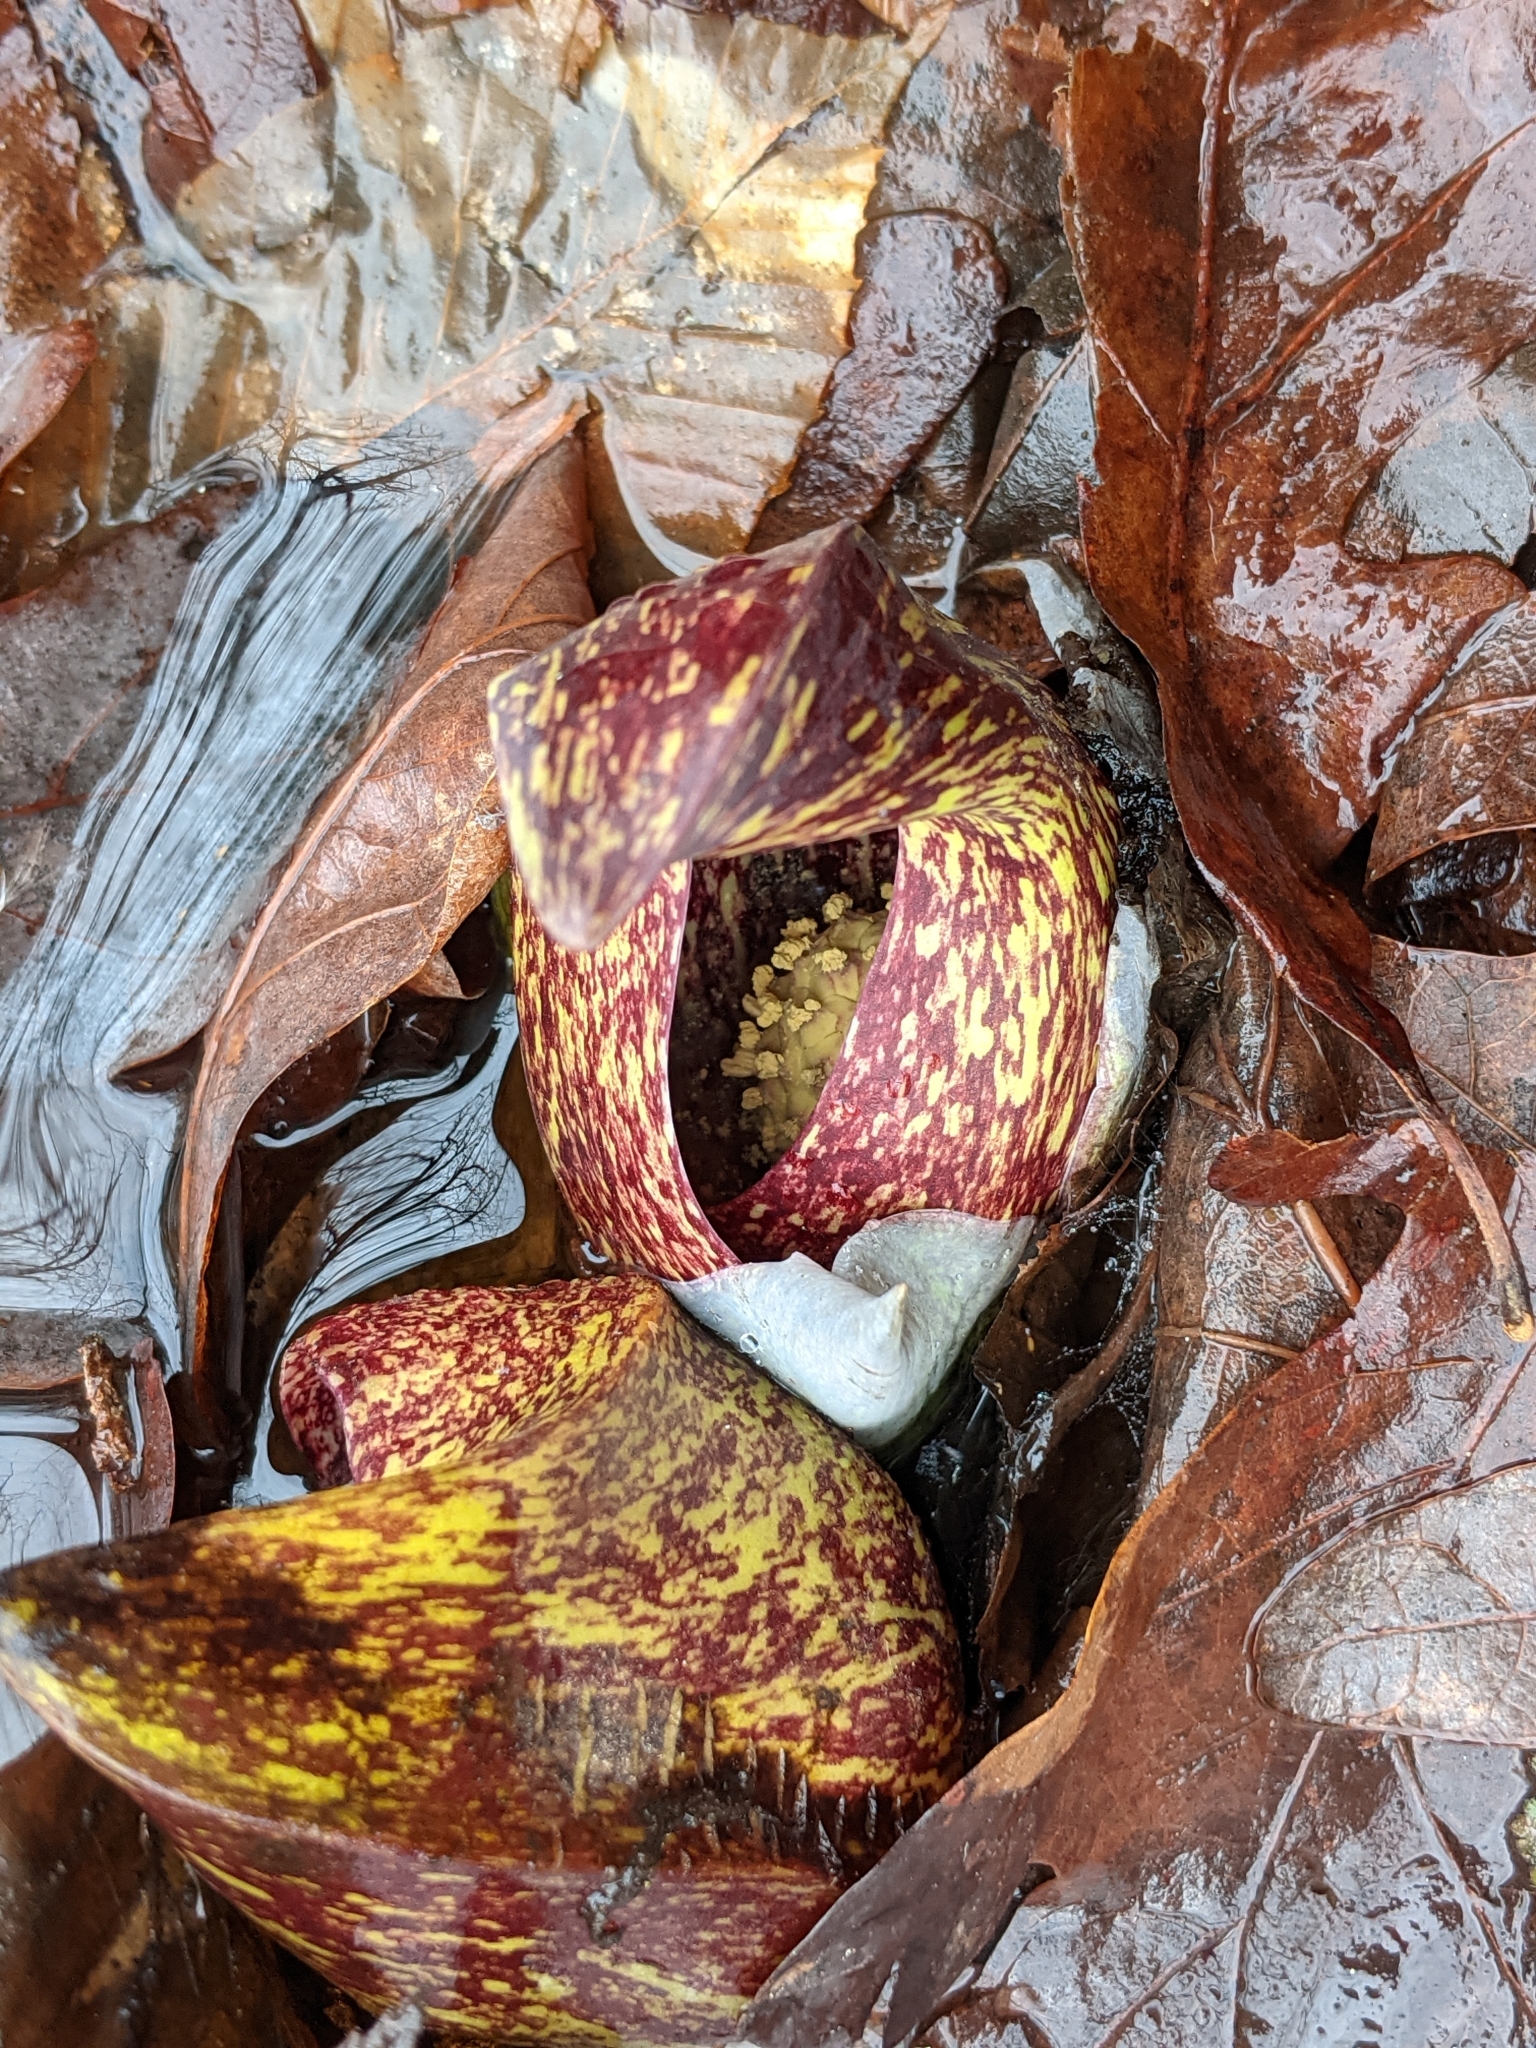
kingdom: Plantae
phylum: Tracheophyta
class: Liliopsida
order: Alismatales
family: Araceae
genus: Symplocarpus
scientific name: Symplocarpus foetidus
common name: Eastern skunk cabbage
